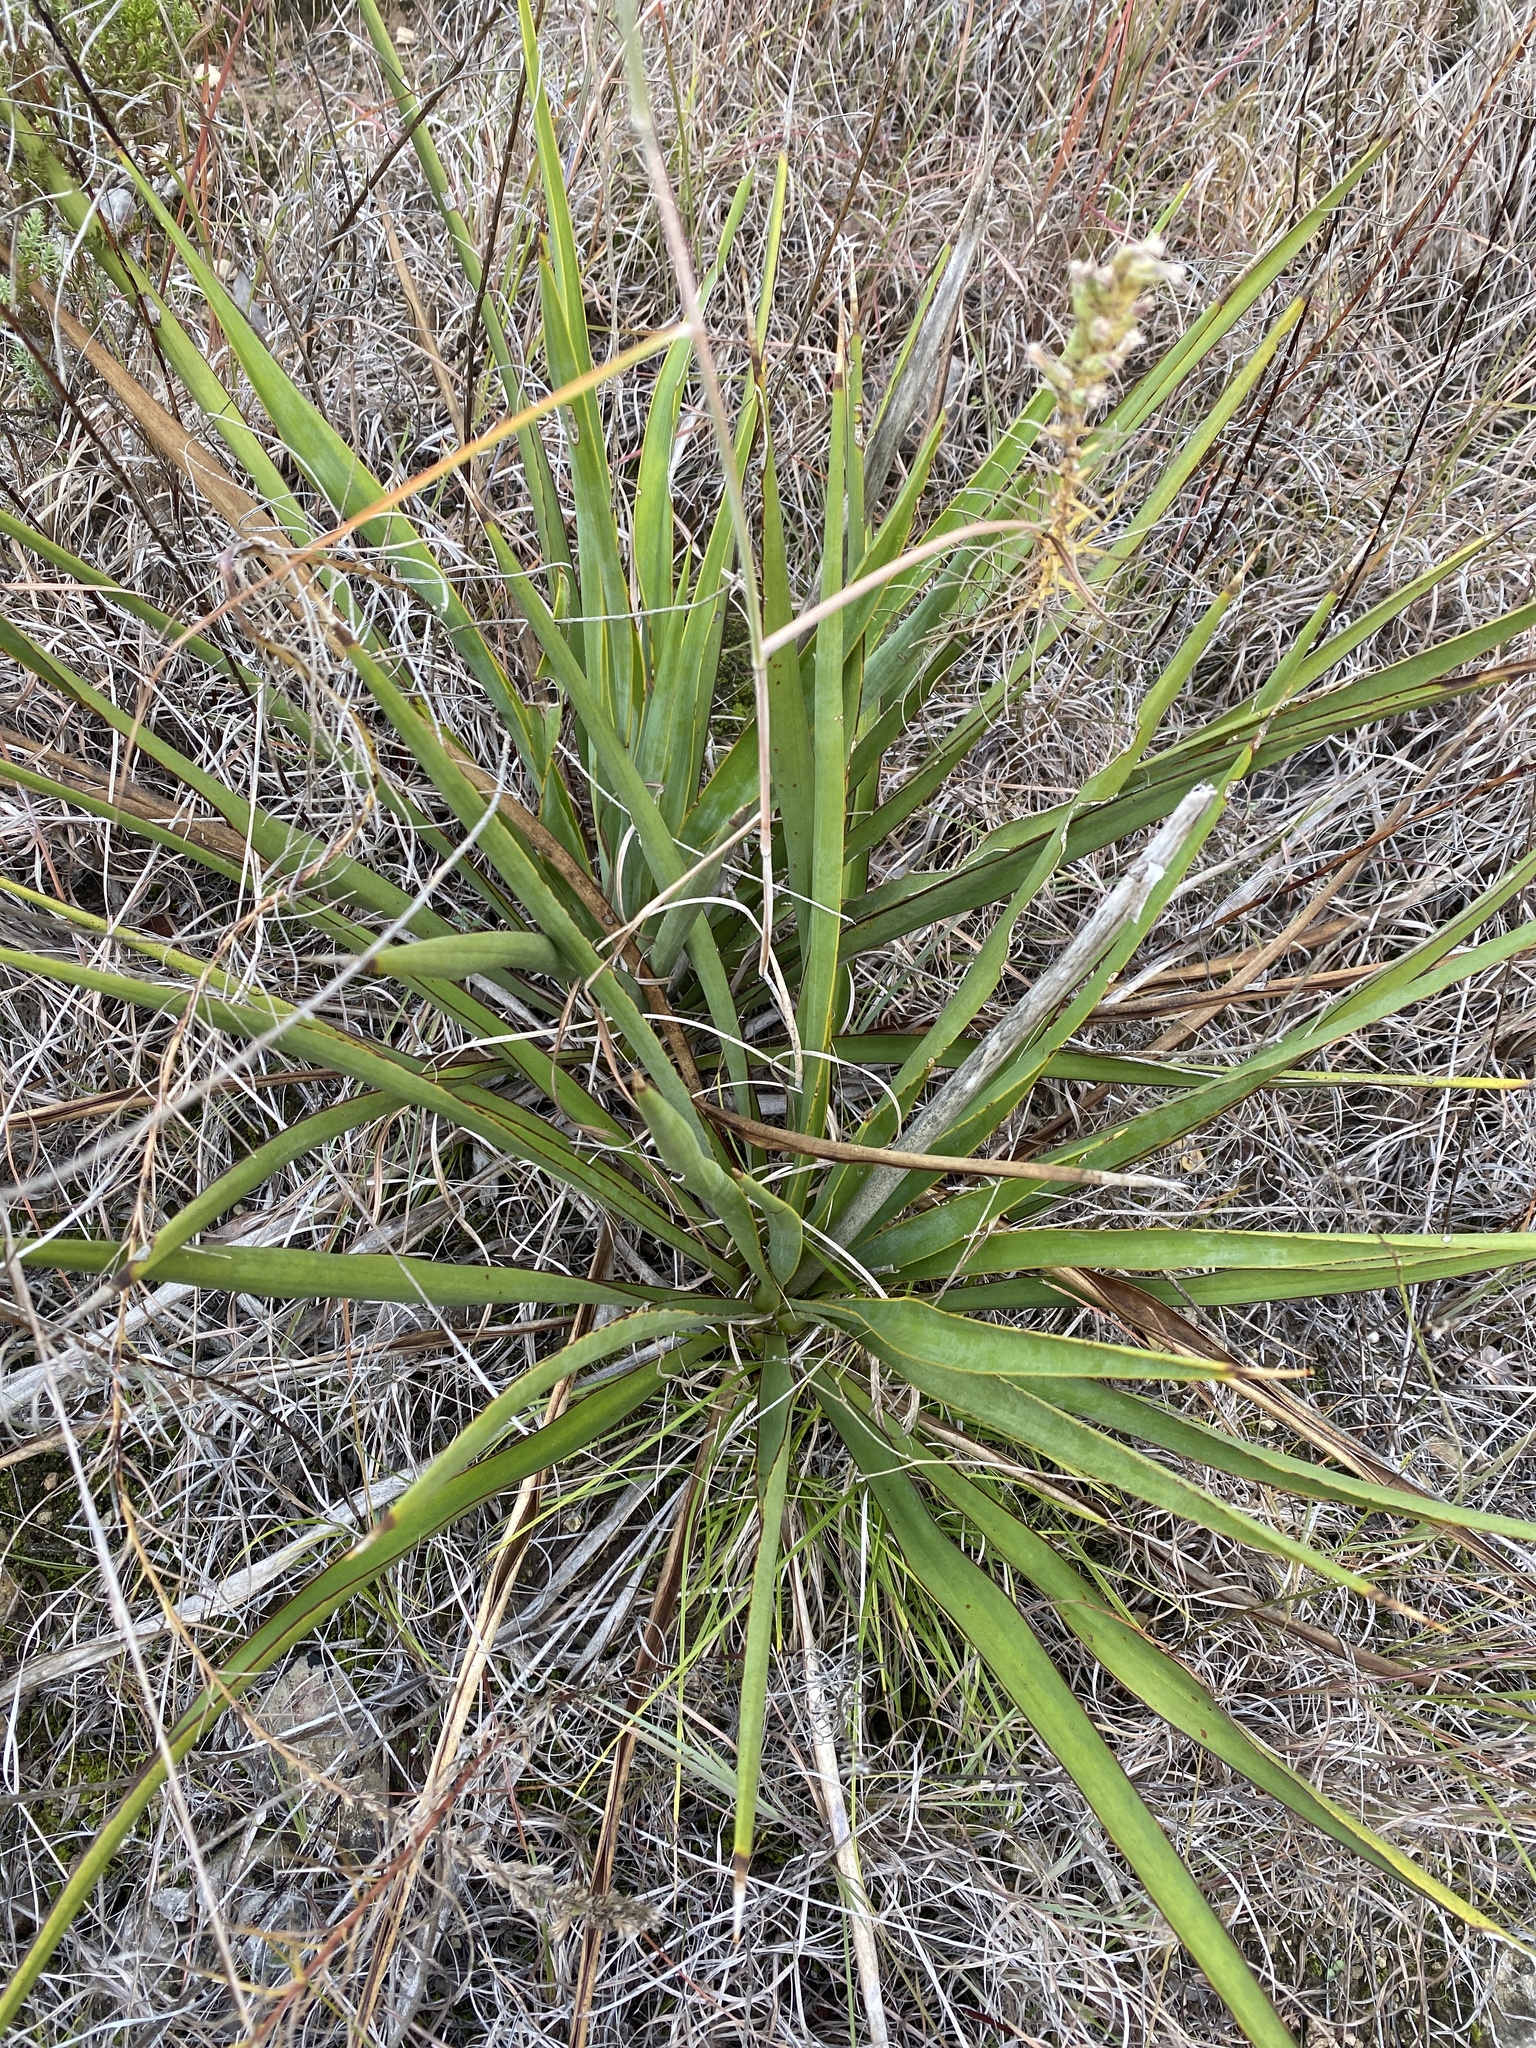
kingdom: Plantae
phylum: Tracheophyta
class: Liliopsida
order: Asparagales
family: Asparagaceae
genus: Yucca
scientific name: Yucca rupicola
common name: Twisted-leaf spanish-dagger
